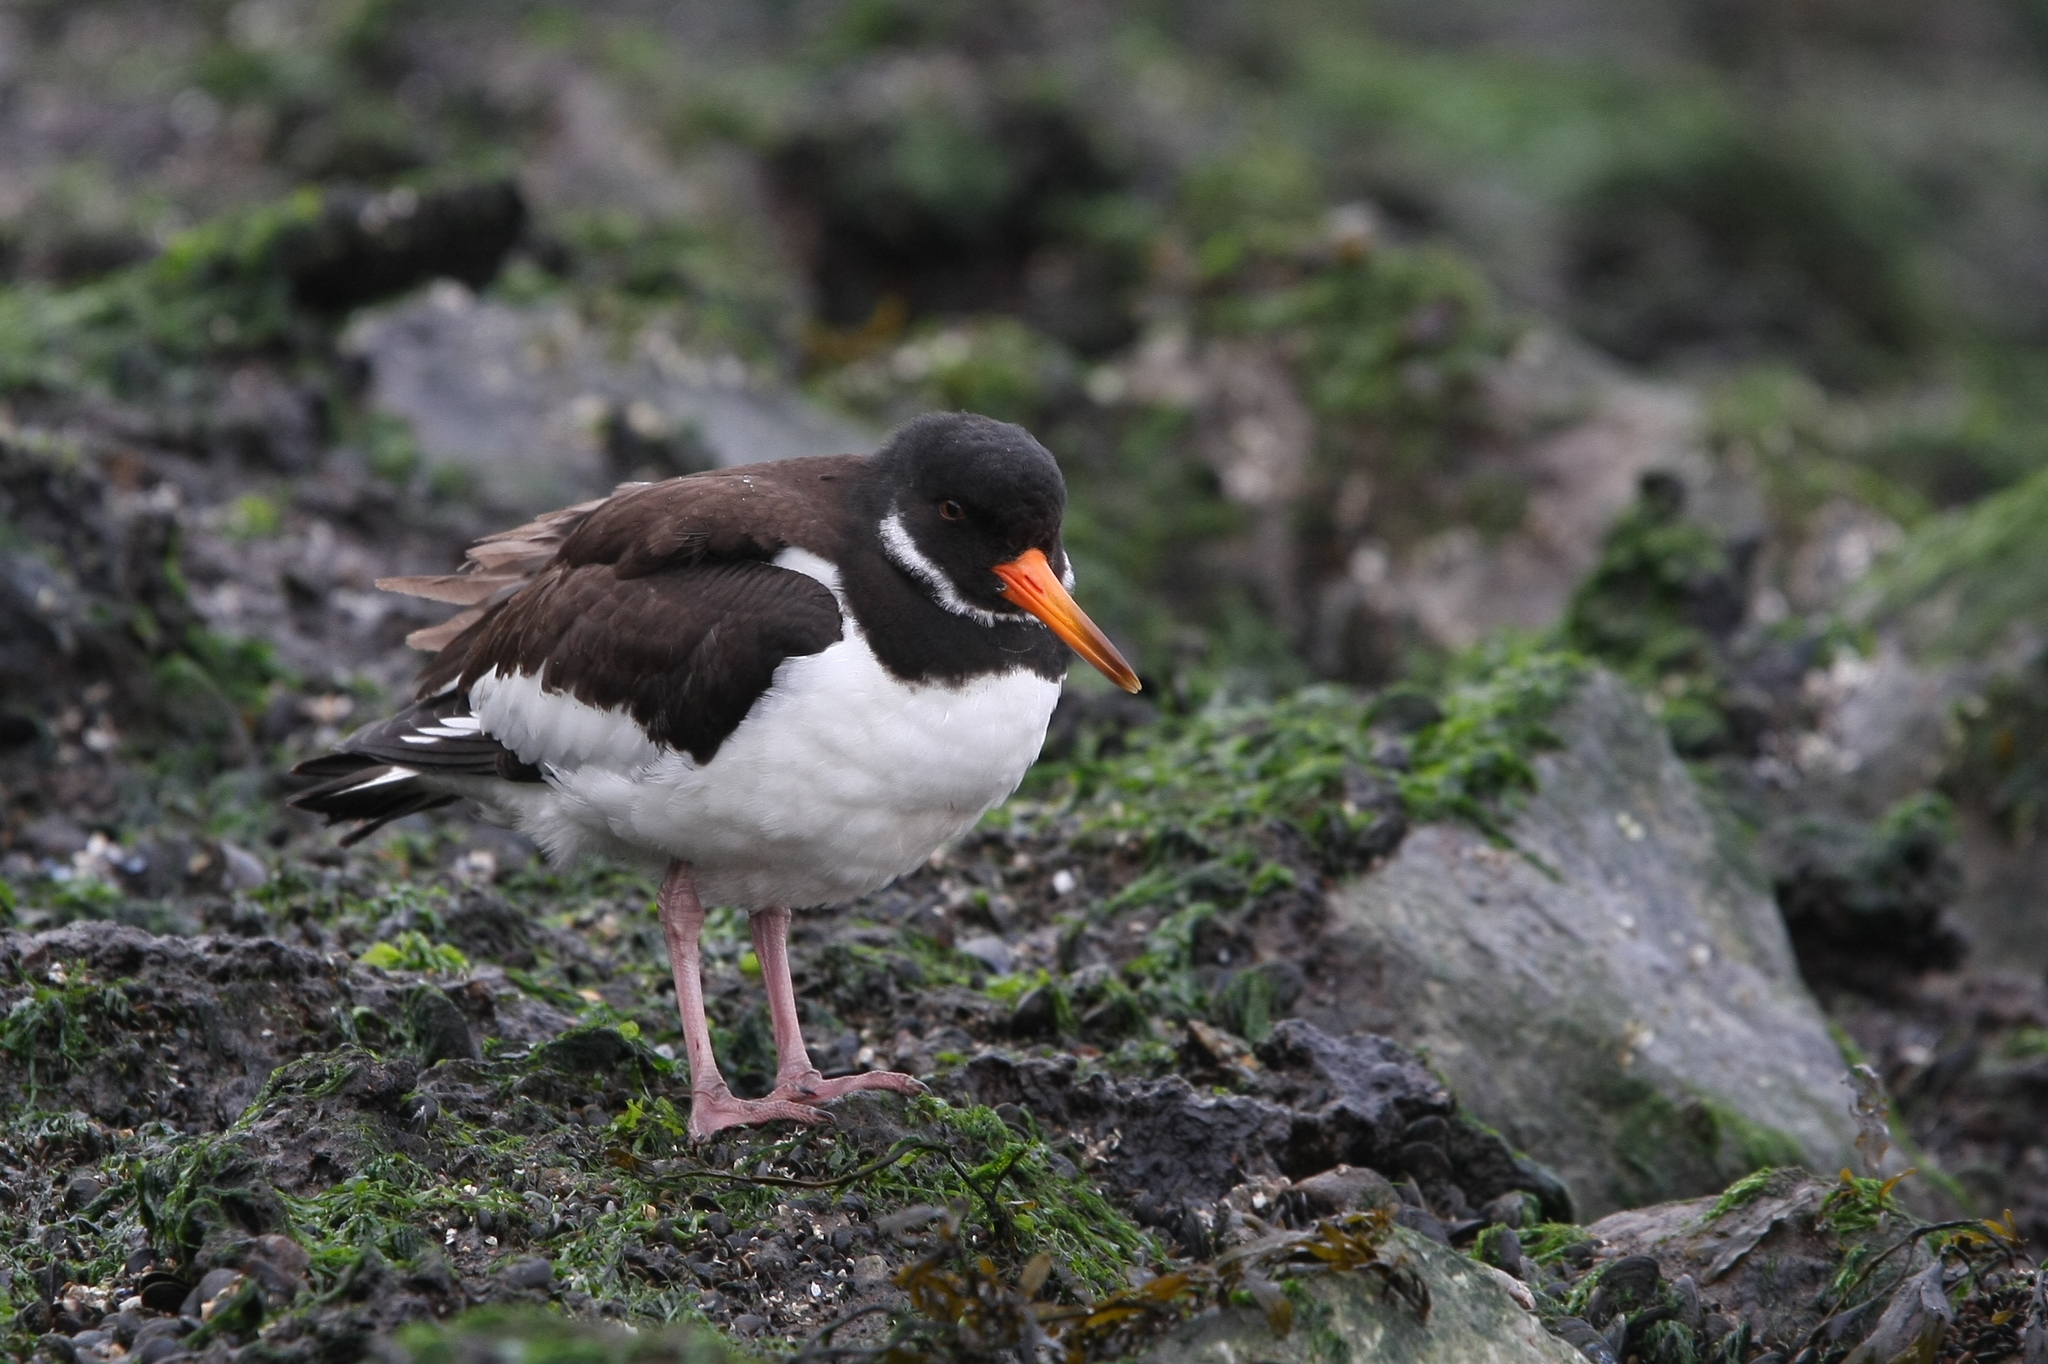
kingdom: Animalia
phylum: Chordata
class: Aves
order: Charadriiformes
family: Haematopodidae
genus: Haematopus
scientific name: Haematopus ostralegus
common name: Eurasian oystercatcher
